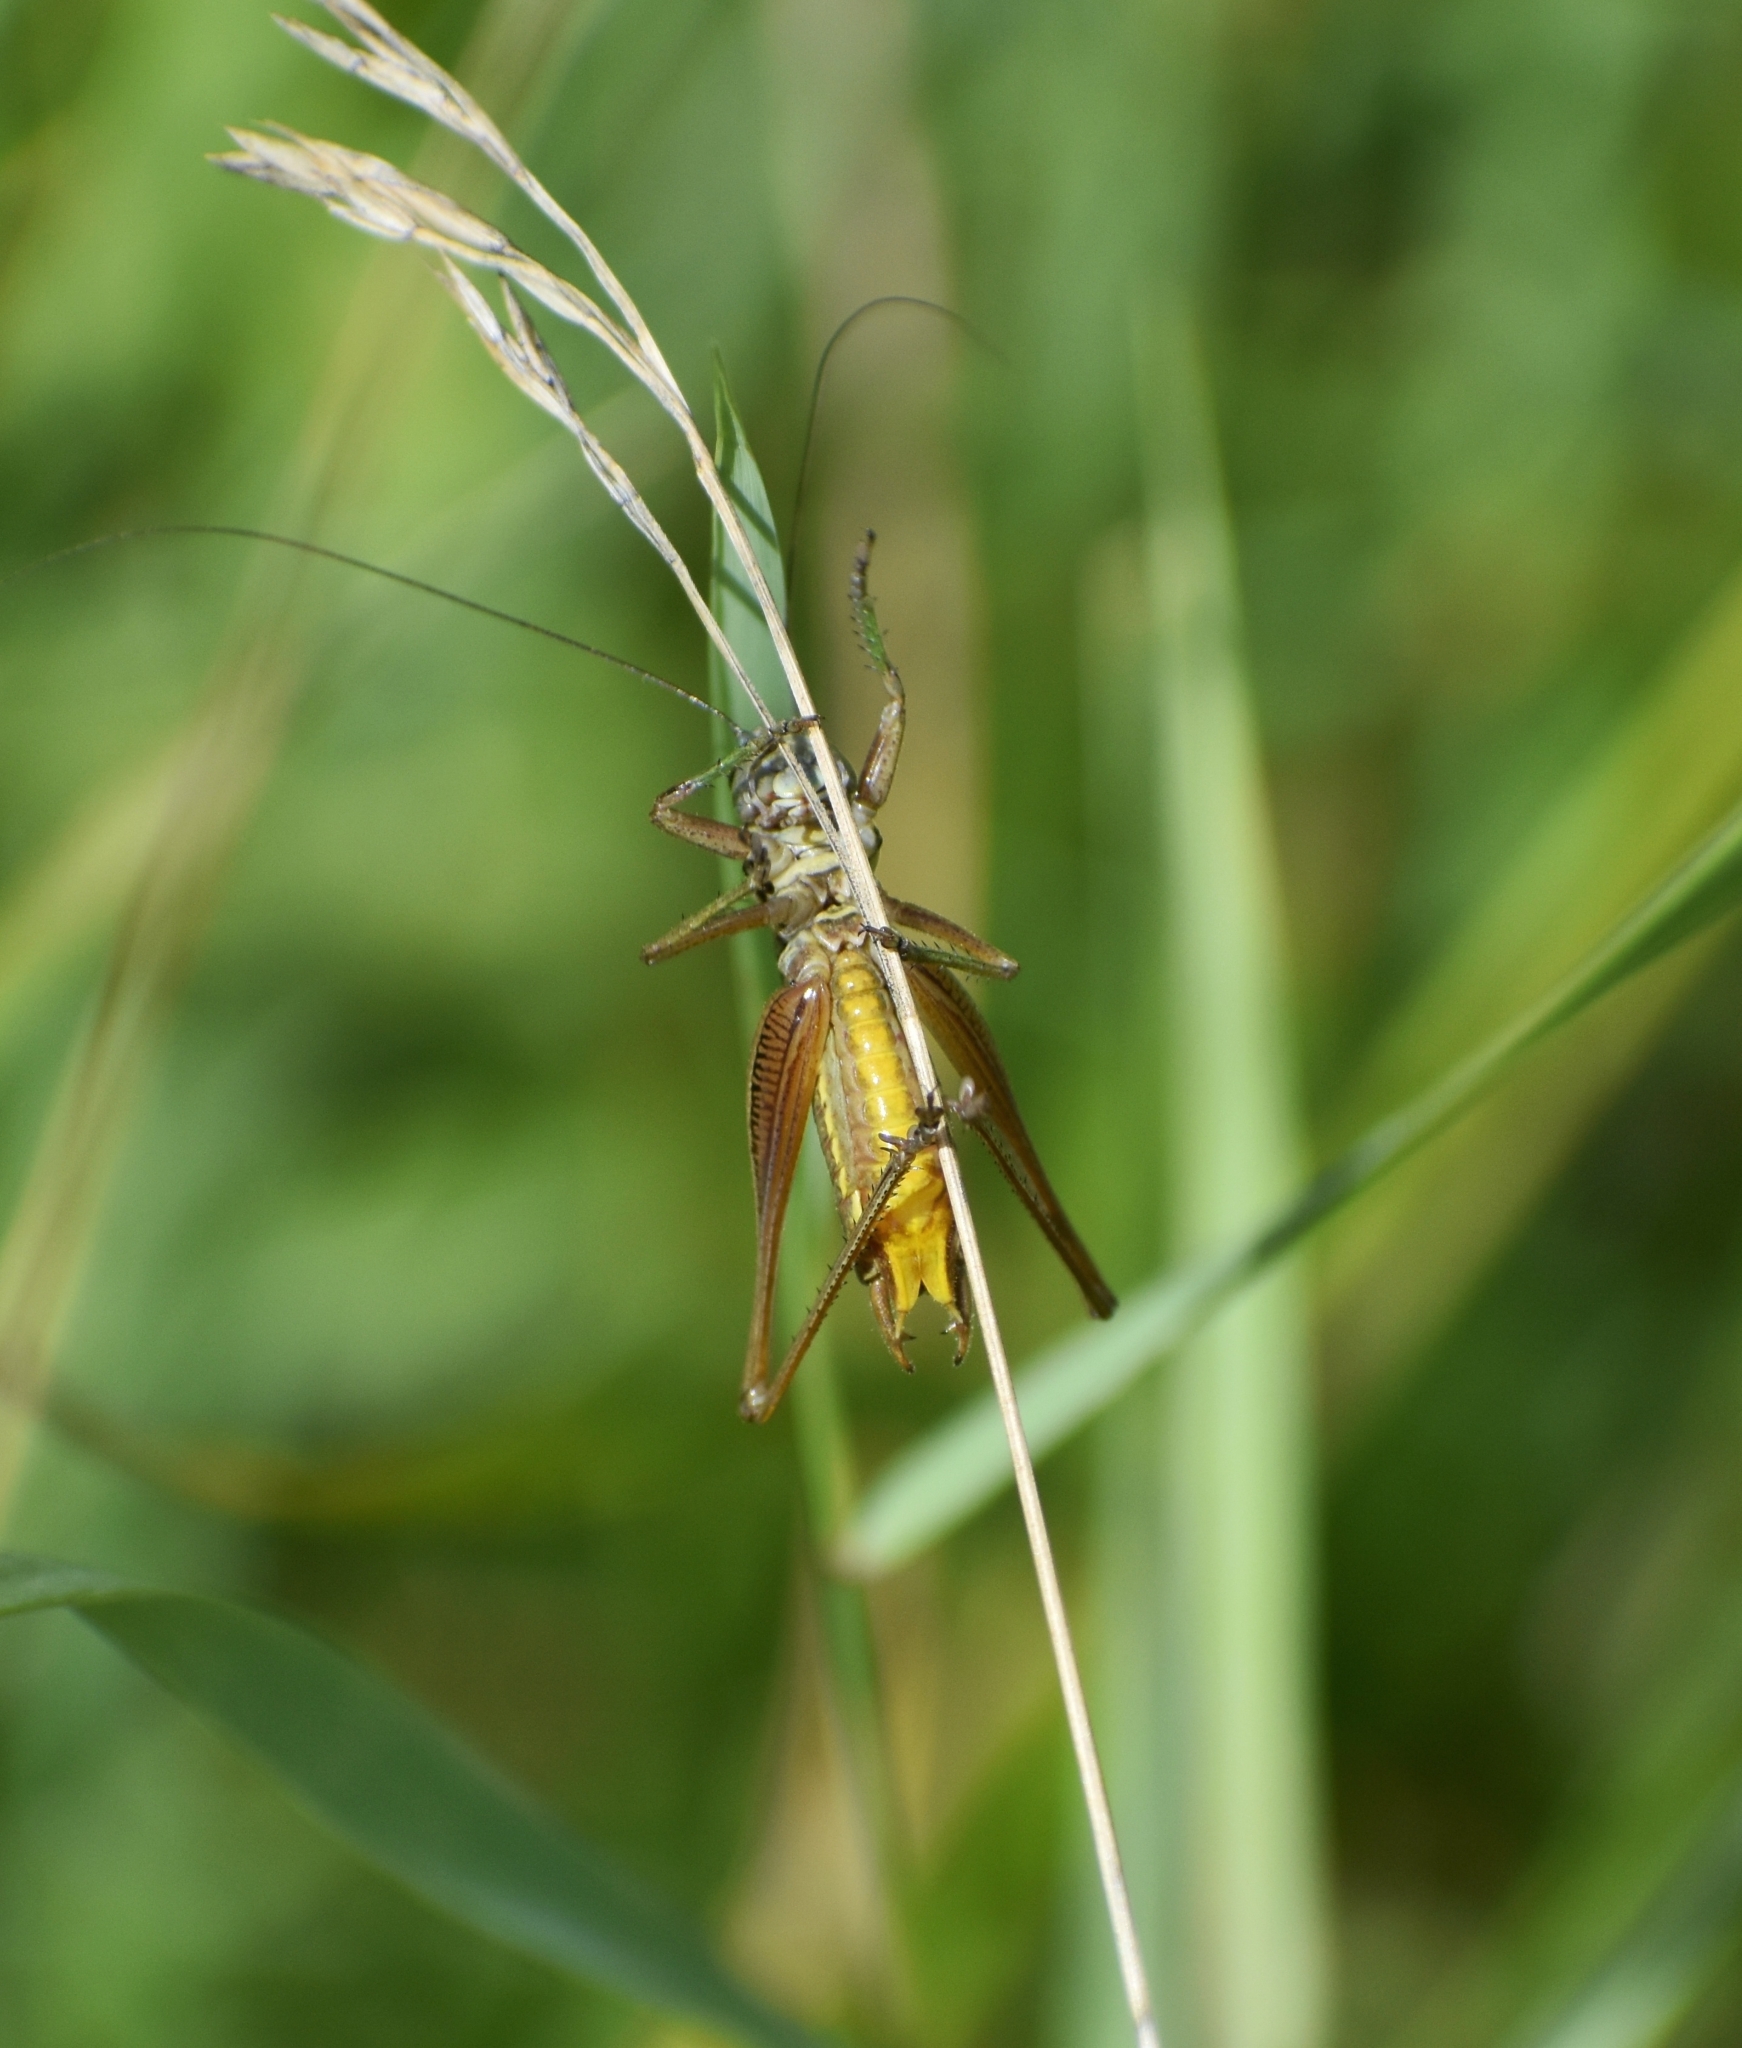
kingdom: Animalia
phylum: Arthropoda
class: Insecta
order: Orthoptera
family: Tettigoniidae
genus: Roeseliana
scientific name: Roeseliana roeselii
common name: Roesel's bush cricket
